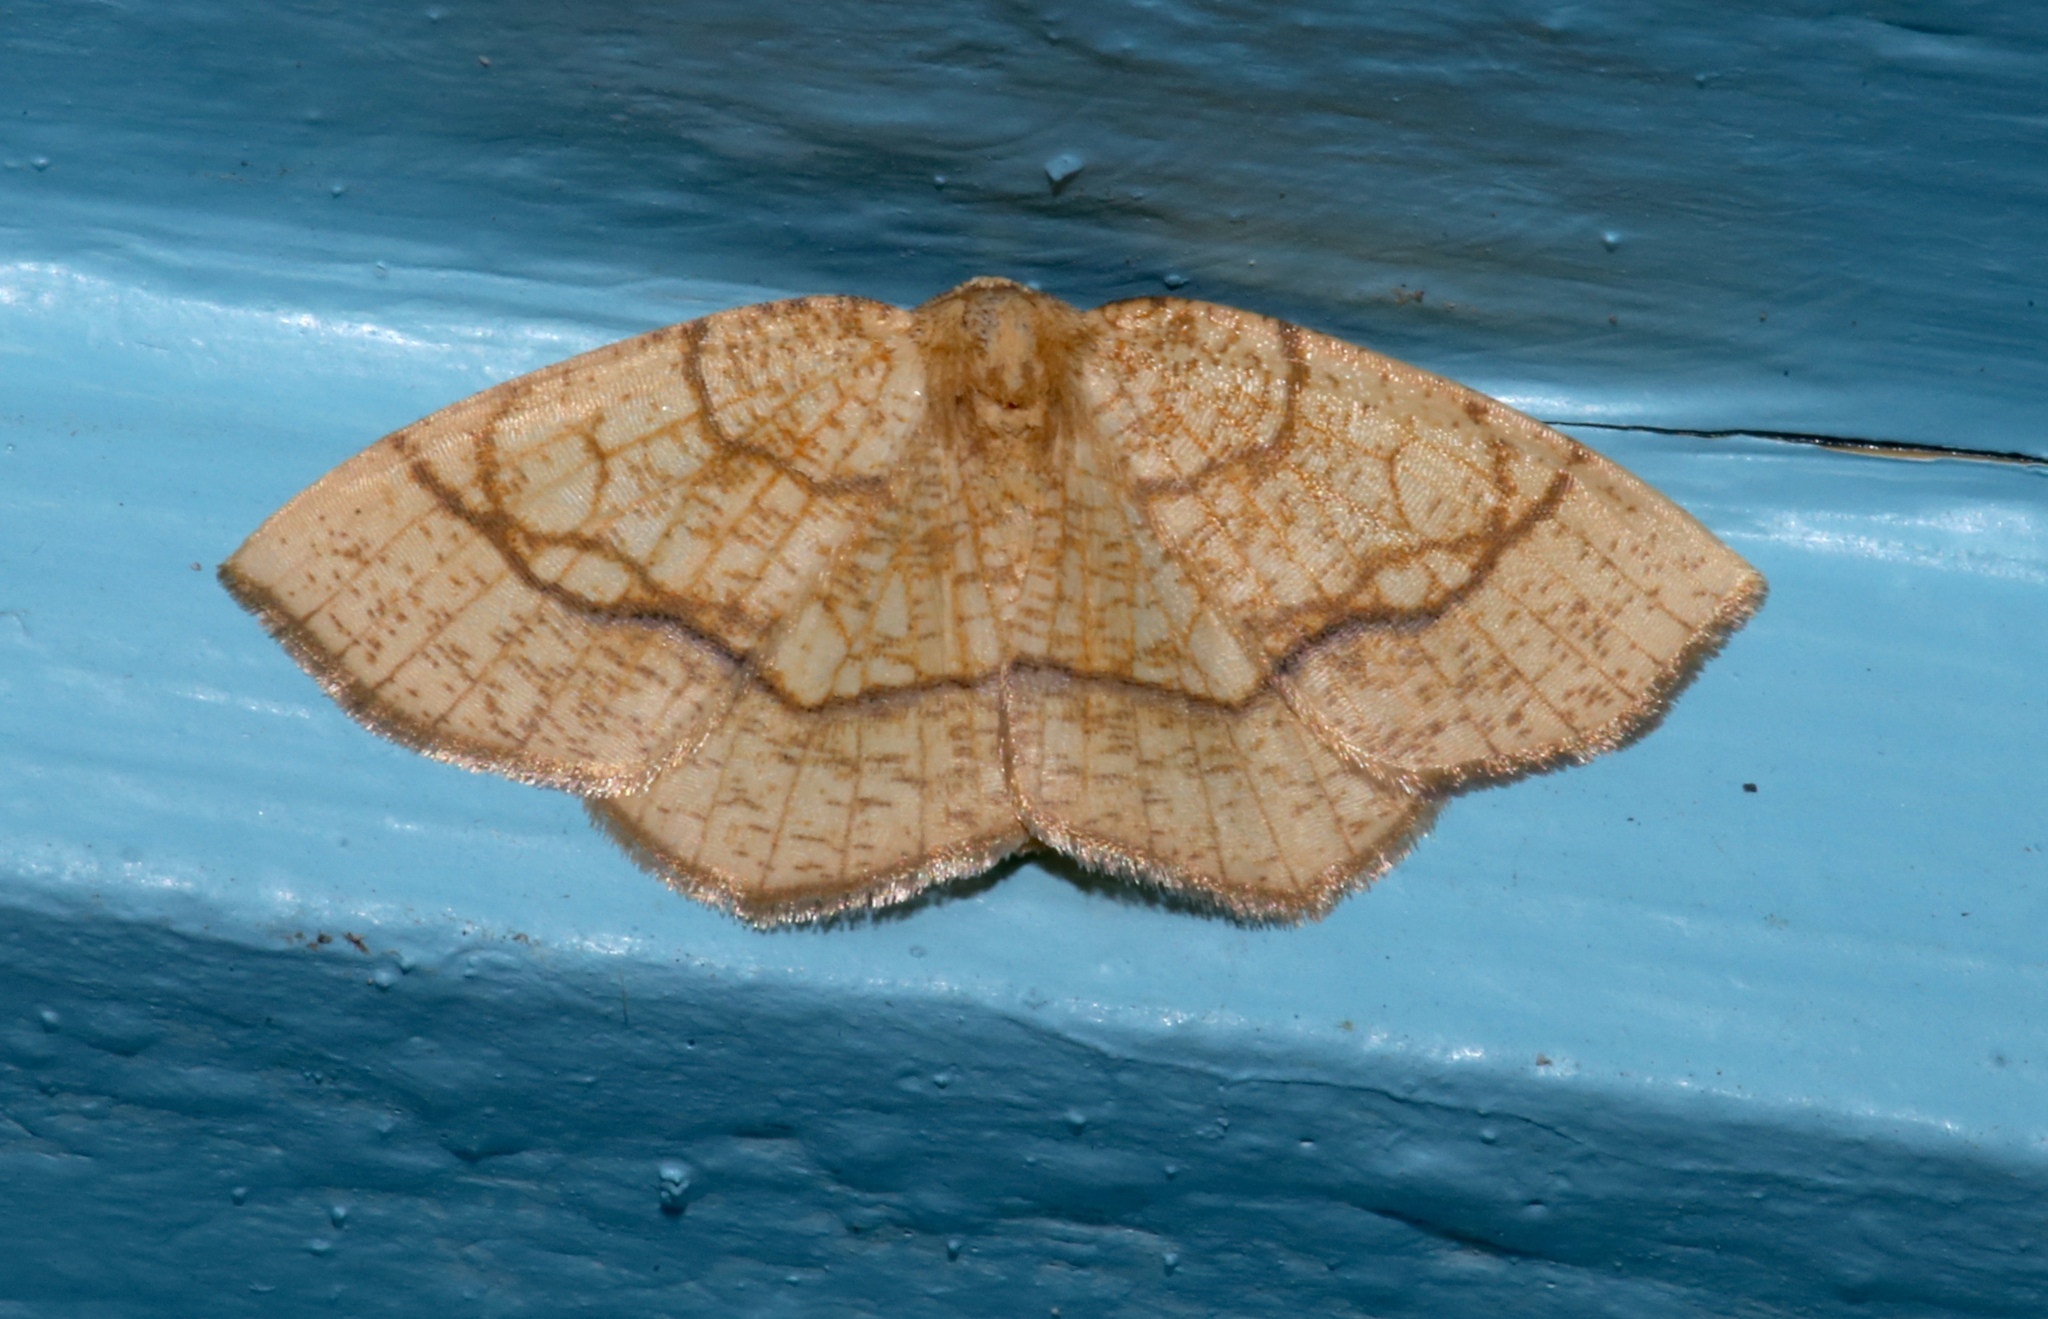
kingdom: Animalia
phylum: Arthropoda
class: Insecta
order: Lepidoptera
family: Geometridae
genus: Nematocampa
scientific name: Nematocampa resistaria
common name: Horned spanworm moth
